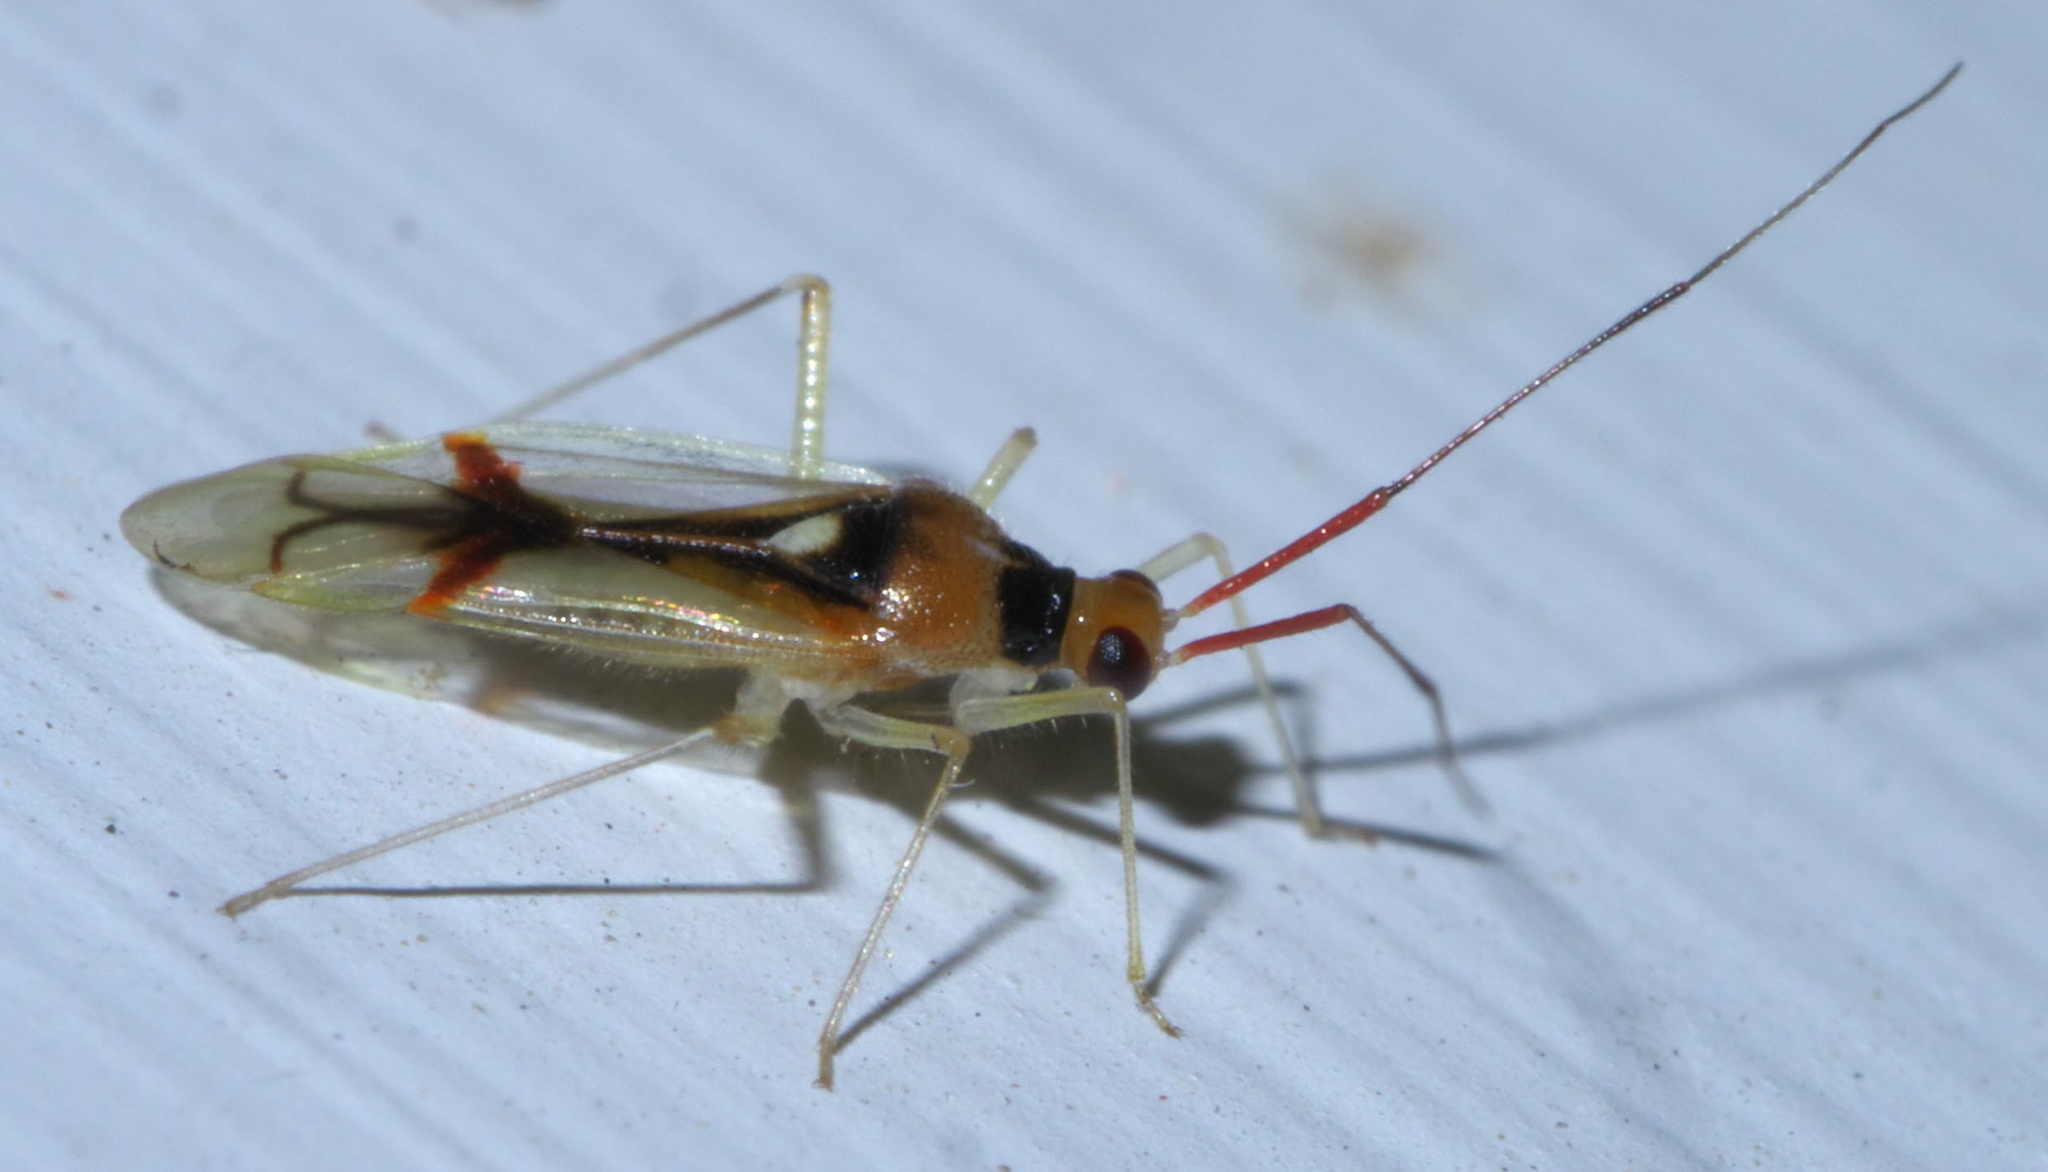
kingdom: Animalia
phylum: Arthropoda
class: Insecta
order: Hemiptera
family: Miridae
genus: Hyaliodes
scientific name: Hyaliodes harti
